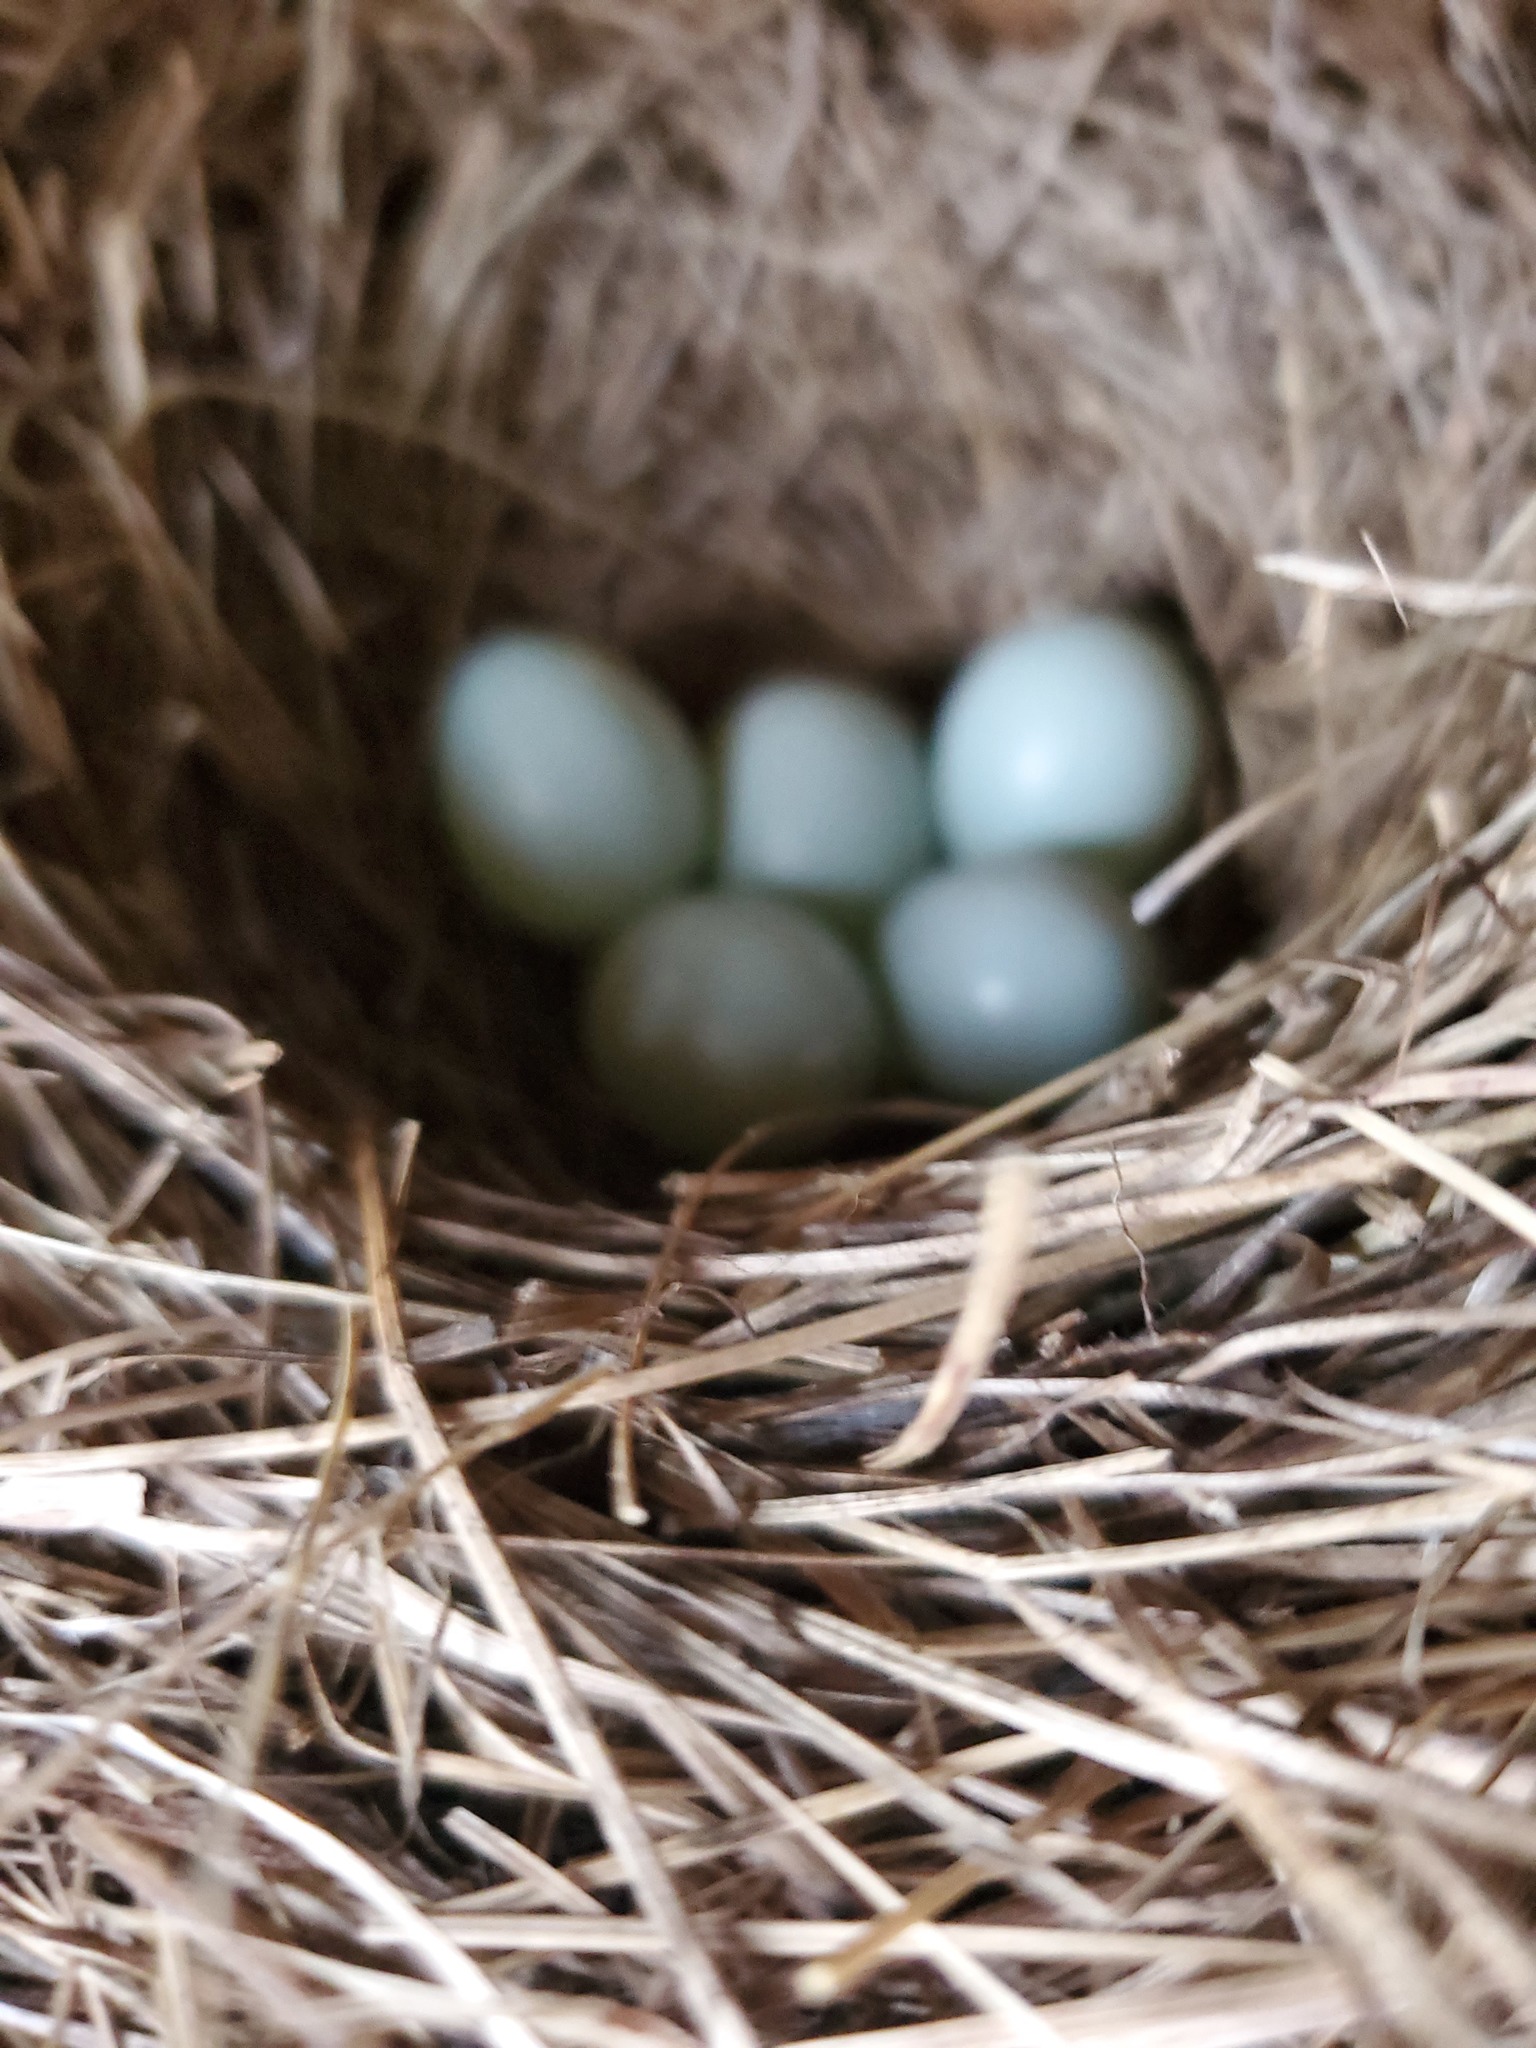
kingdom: Animalia
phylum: Chordata
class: Aves
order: Passeriformes
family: Turdidae
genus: Sialia
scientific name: Sialia sialis
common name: Eastern bluebird
